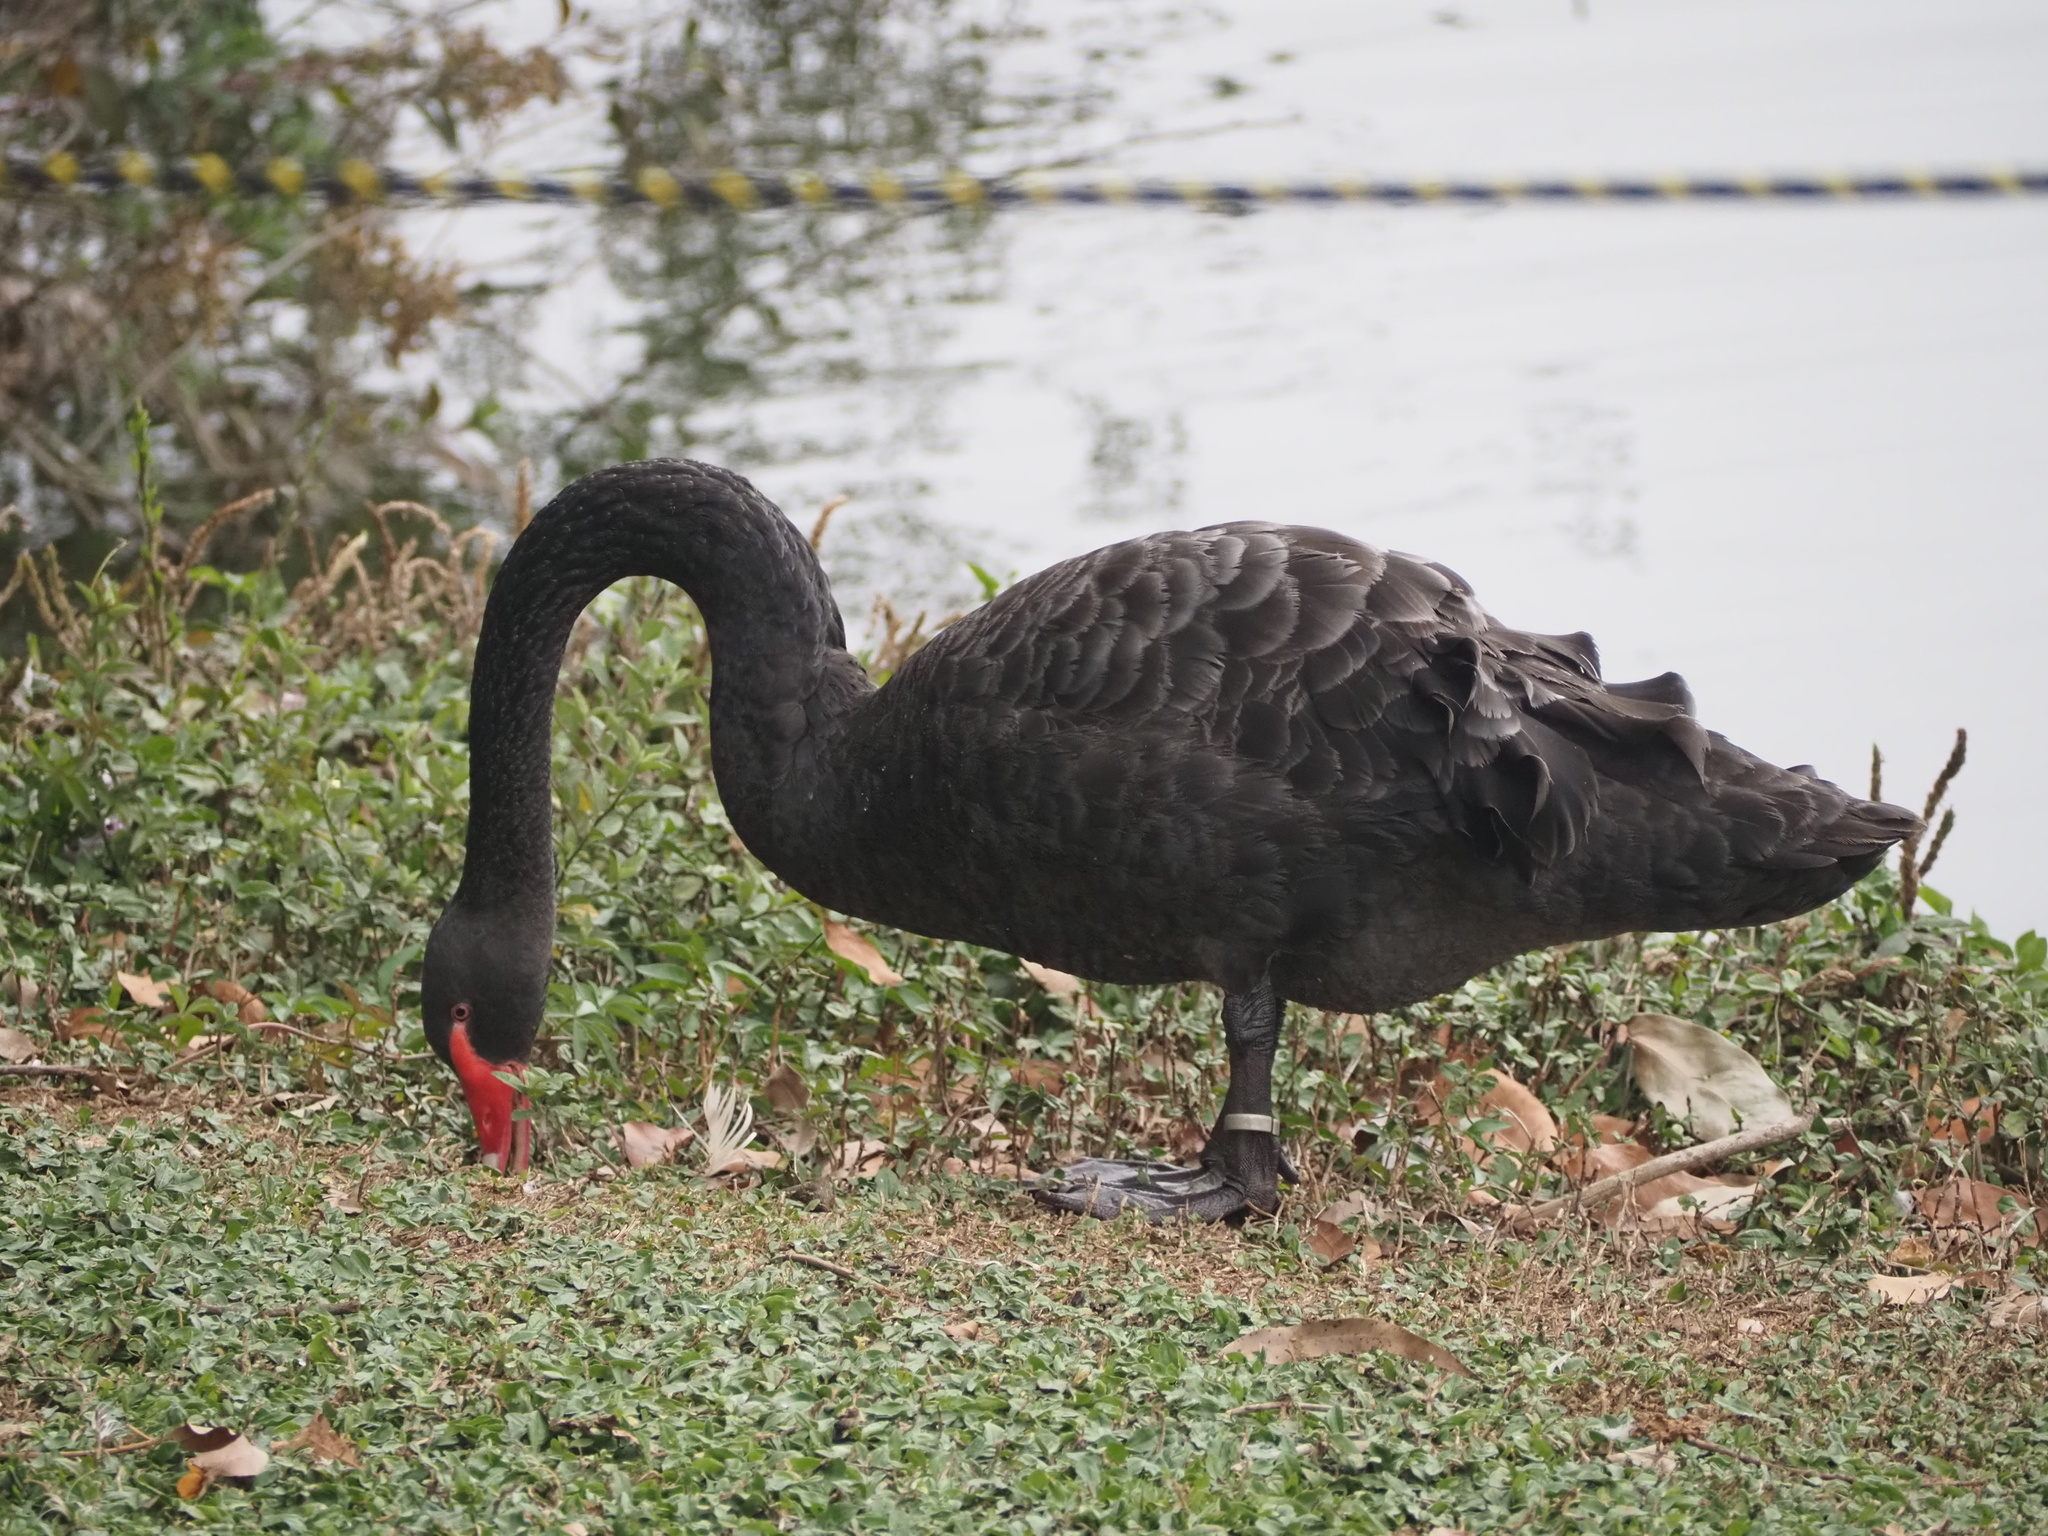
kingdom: Animalia
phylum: Chordata
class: Aves
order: Anseriformes
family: Anatidae
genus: Cygnus
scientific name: Cygnus atratus
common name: Black swan
